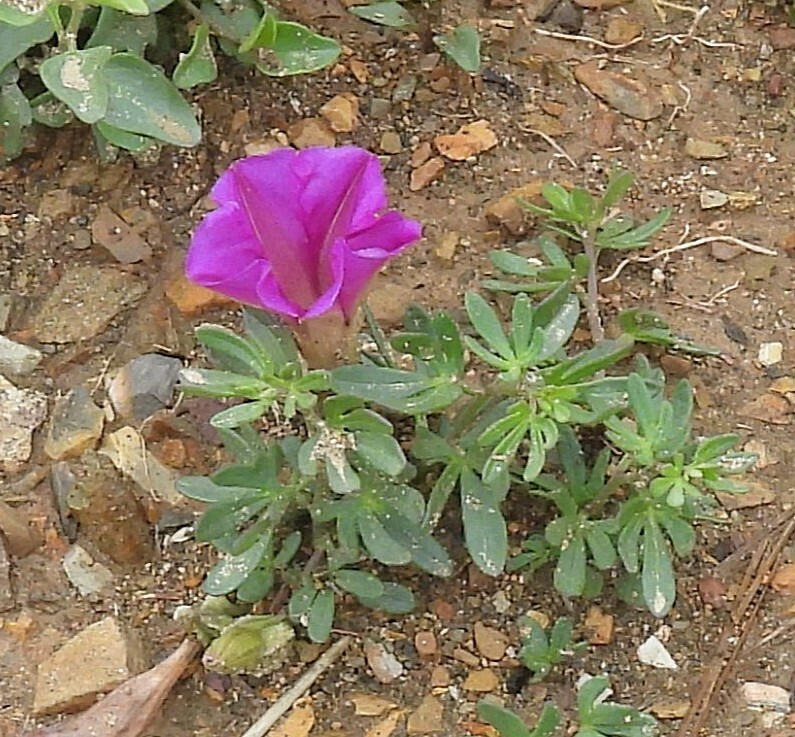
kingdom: Plantae
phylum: Tracheophyta
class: Magnoliopsida
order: Solanales
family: Convolvulaceae
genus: Ipomoea
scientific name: Ipomoea plummerae
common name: Plummer's morning-glory
